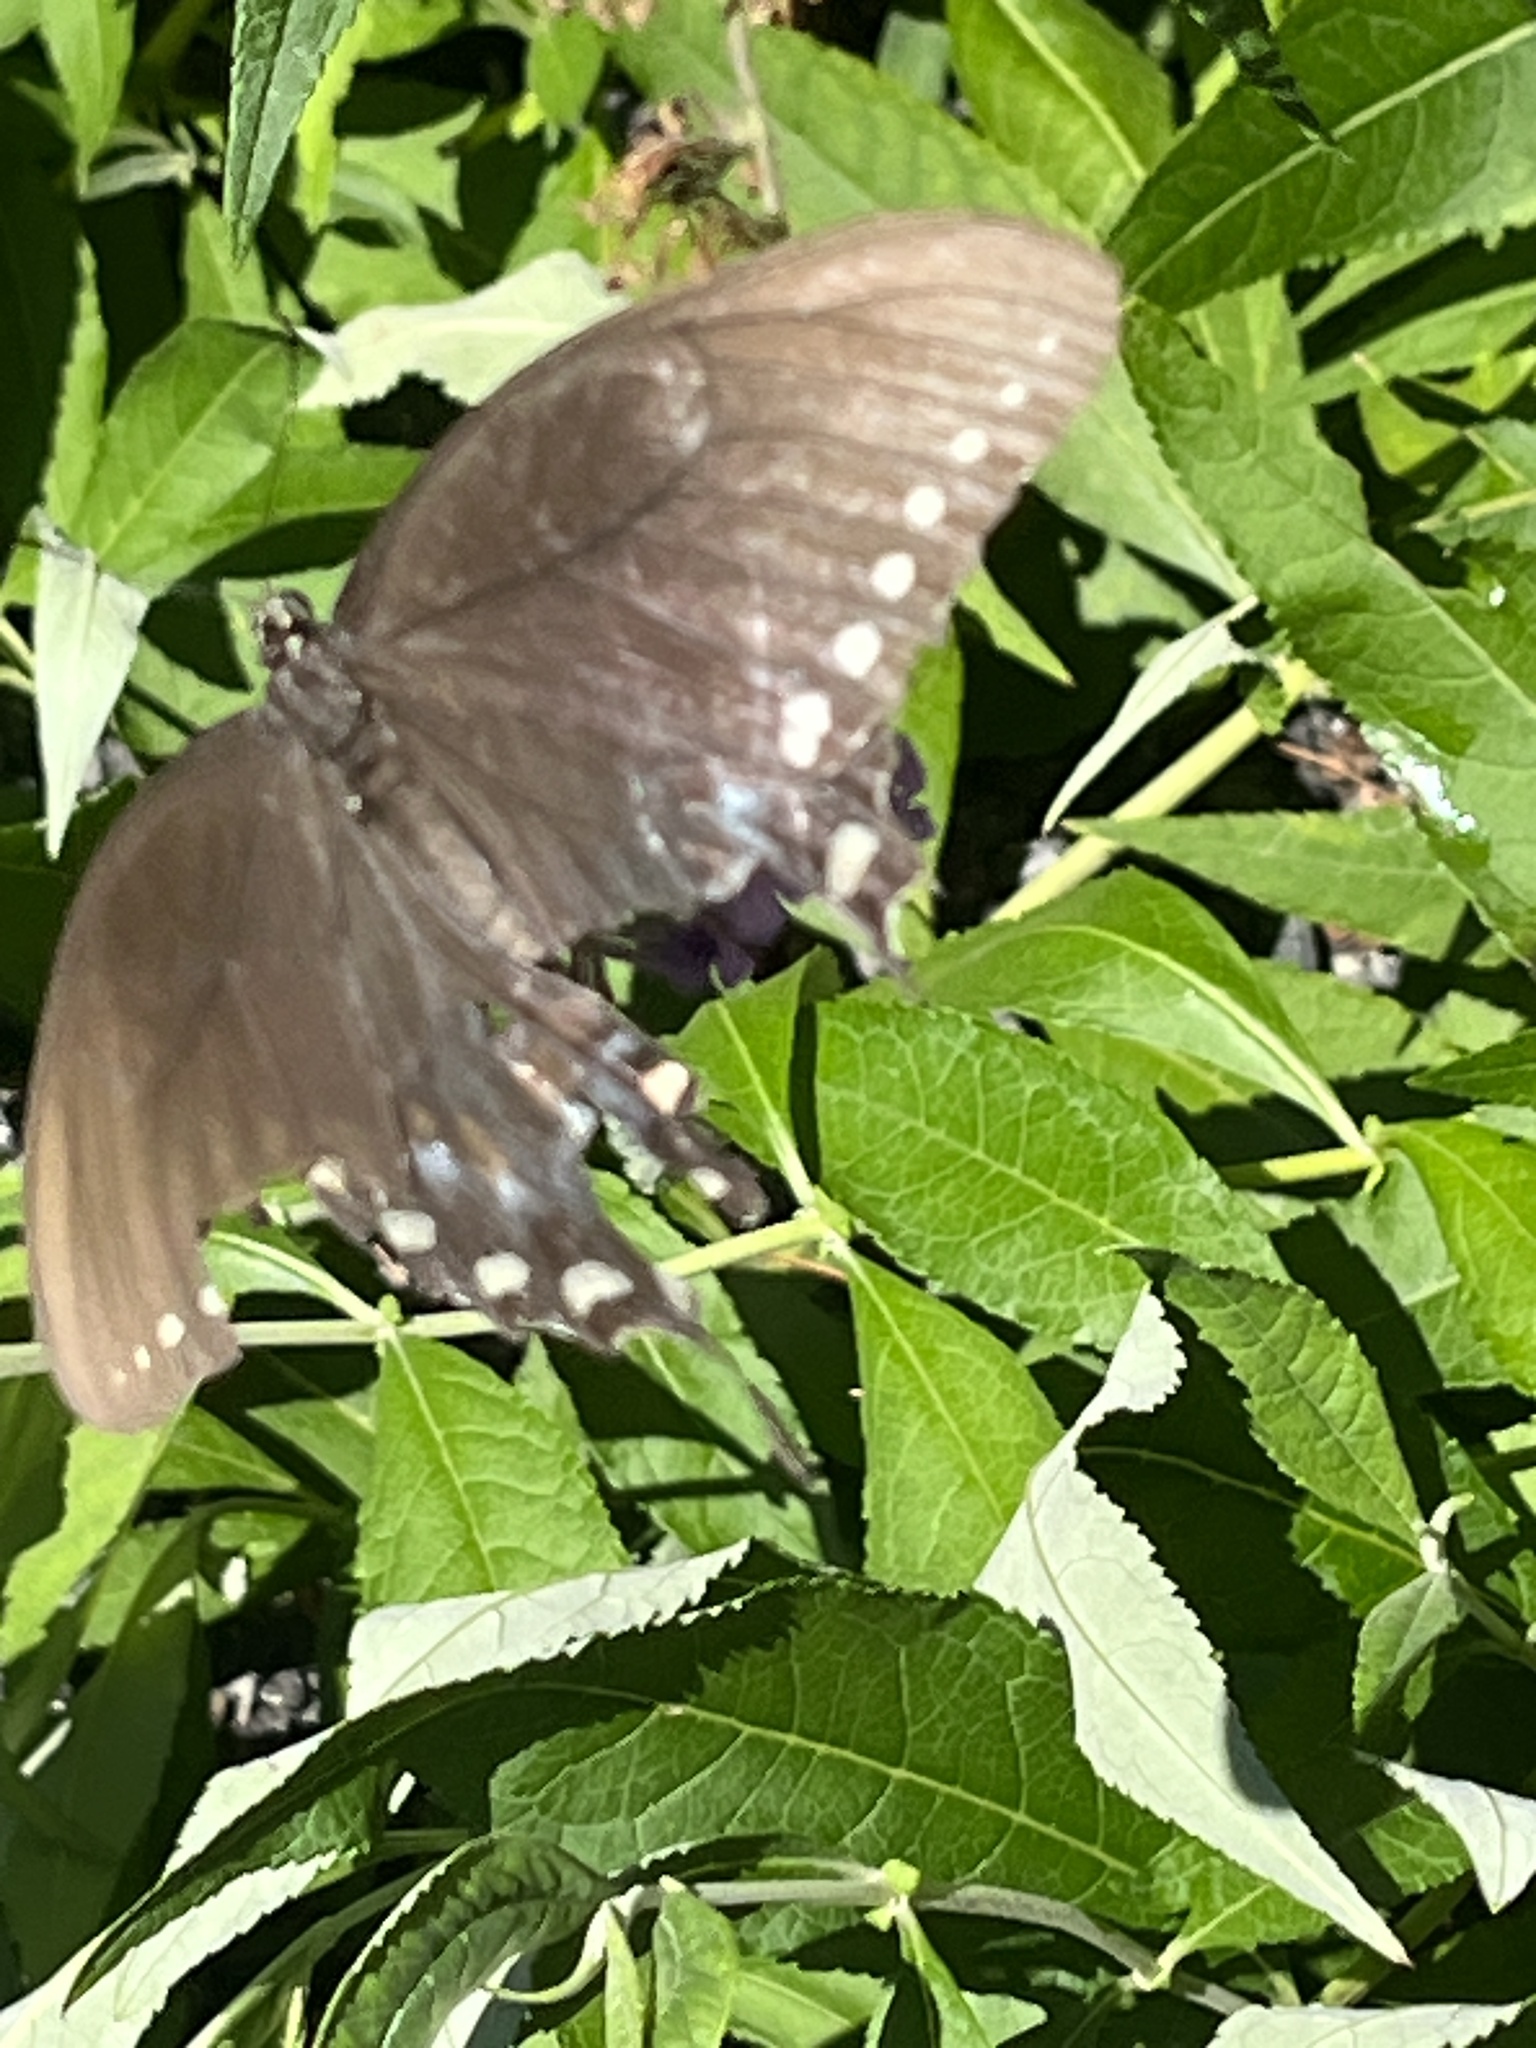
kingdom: Animalia
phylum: Arthropoda
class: Insecta
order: Lepidoptera
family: Papilionidae
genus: Papilio
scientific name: Papilio troilus
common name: Spicebush swallowtail
